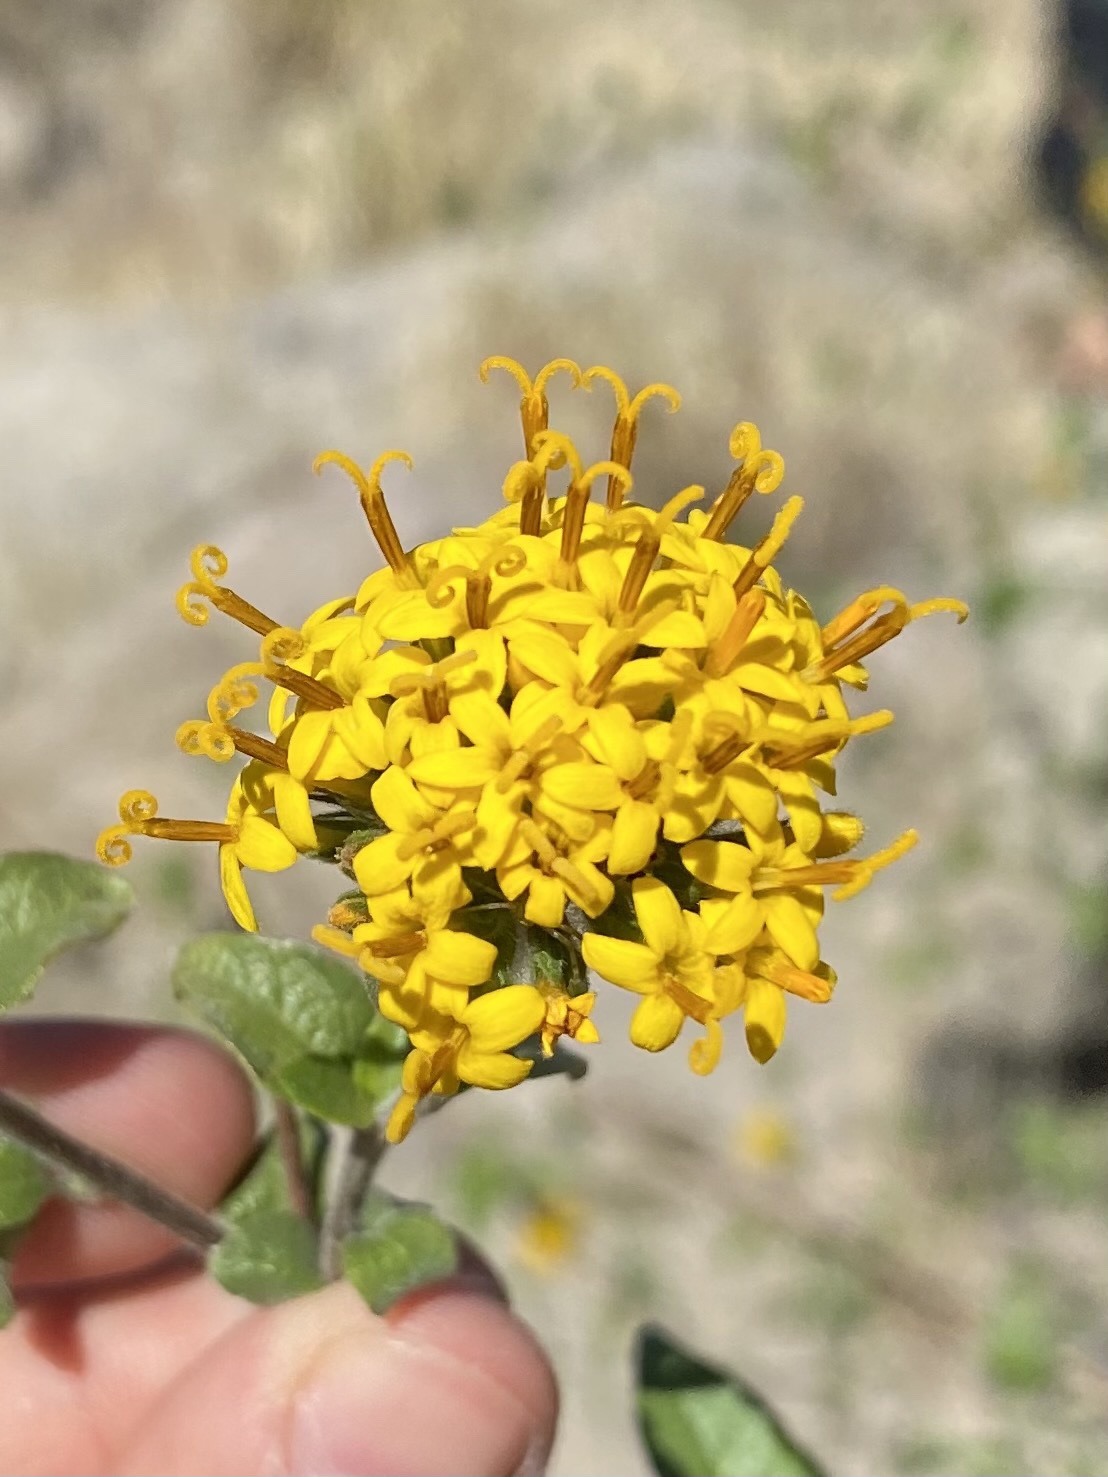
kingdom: Plantae
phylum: Tracheophyta
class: Magnoliopsida
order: Asterales
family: Asteraceae
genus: Lagascea
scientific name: Lagascea decipiens
